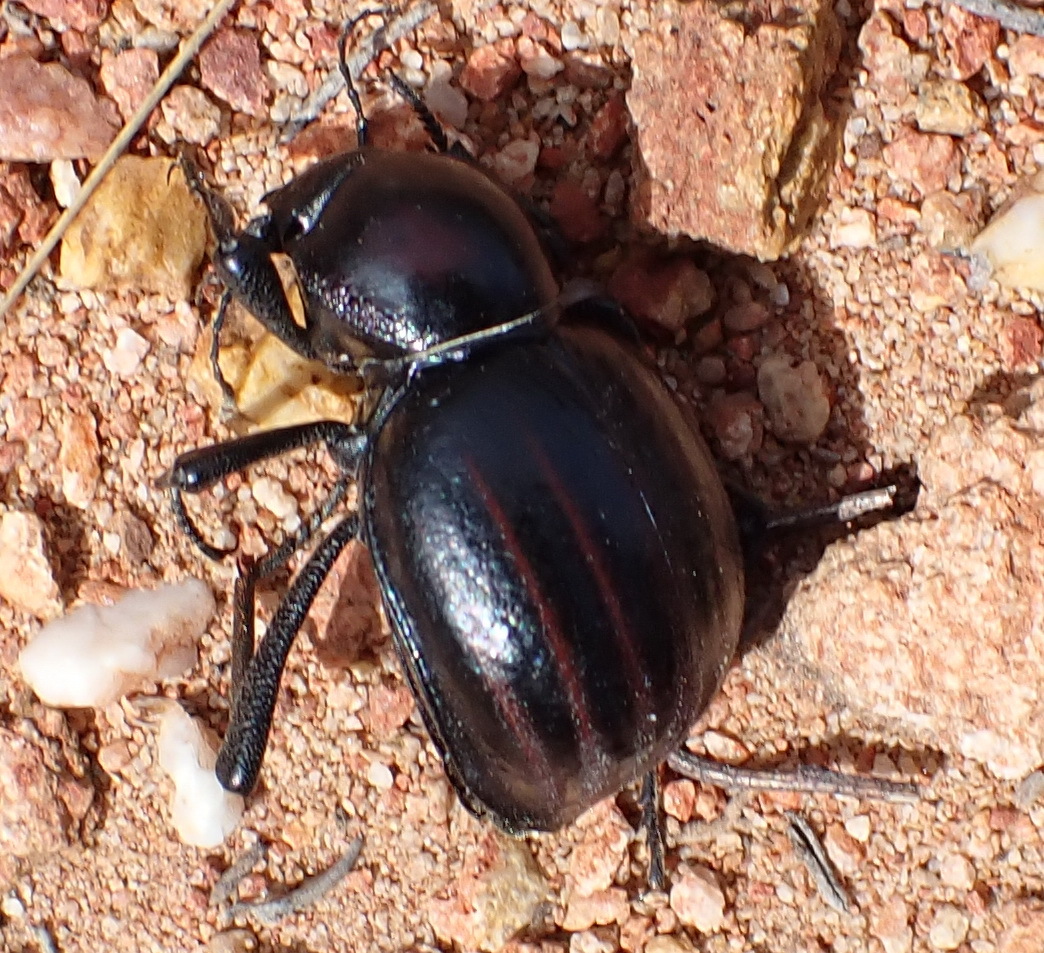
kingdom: Animalia
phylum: Arthropoda
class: Insecta
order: Coleoptera
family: Tenebrionidae
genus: Mariazofia
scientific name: Mariazofia
